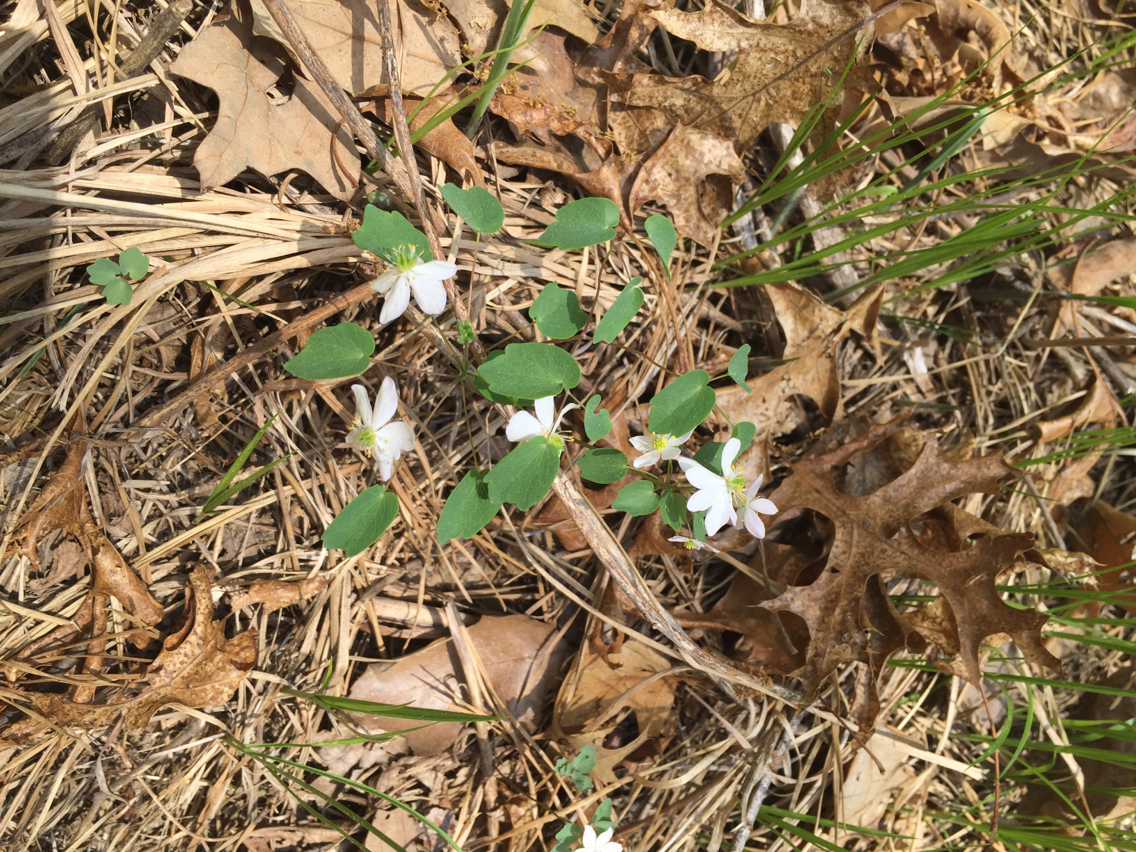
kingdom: Plantae
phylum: Tracheophyta
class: Magnoliopsida
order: Ranunculales
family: Ranunculaceae
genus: Thalictrum
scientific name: Thalictrum thalictroides
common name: Rue-anemone
